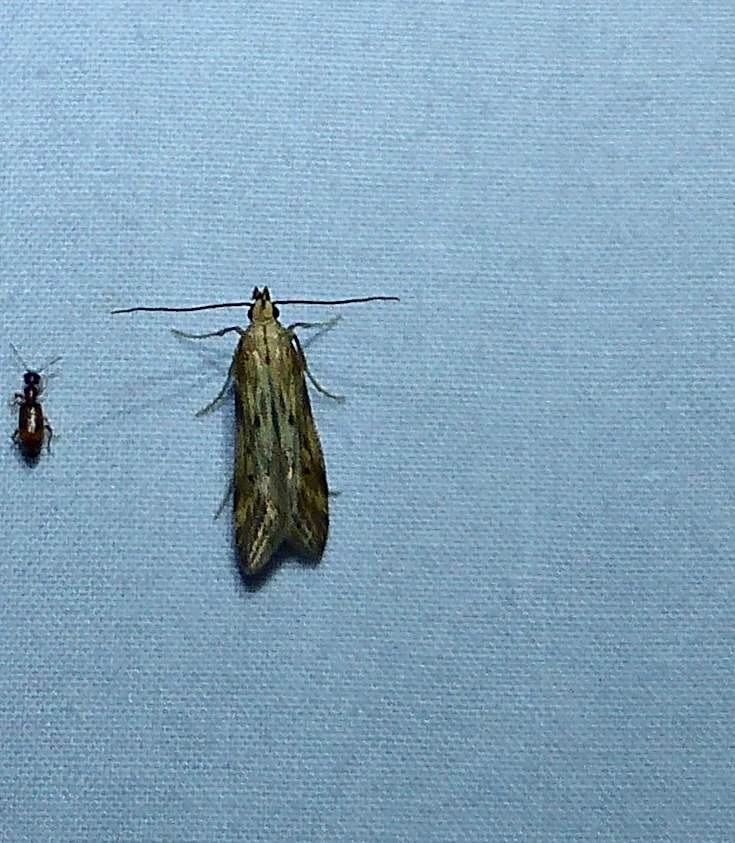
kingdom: Animalia
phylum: Arthropoda
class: Insecta
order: Lepidoptera
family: Gelechiidae
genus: Metzneria
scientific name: Metzneria lappella
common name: Burdock neb
